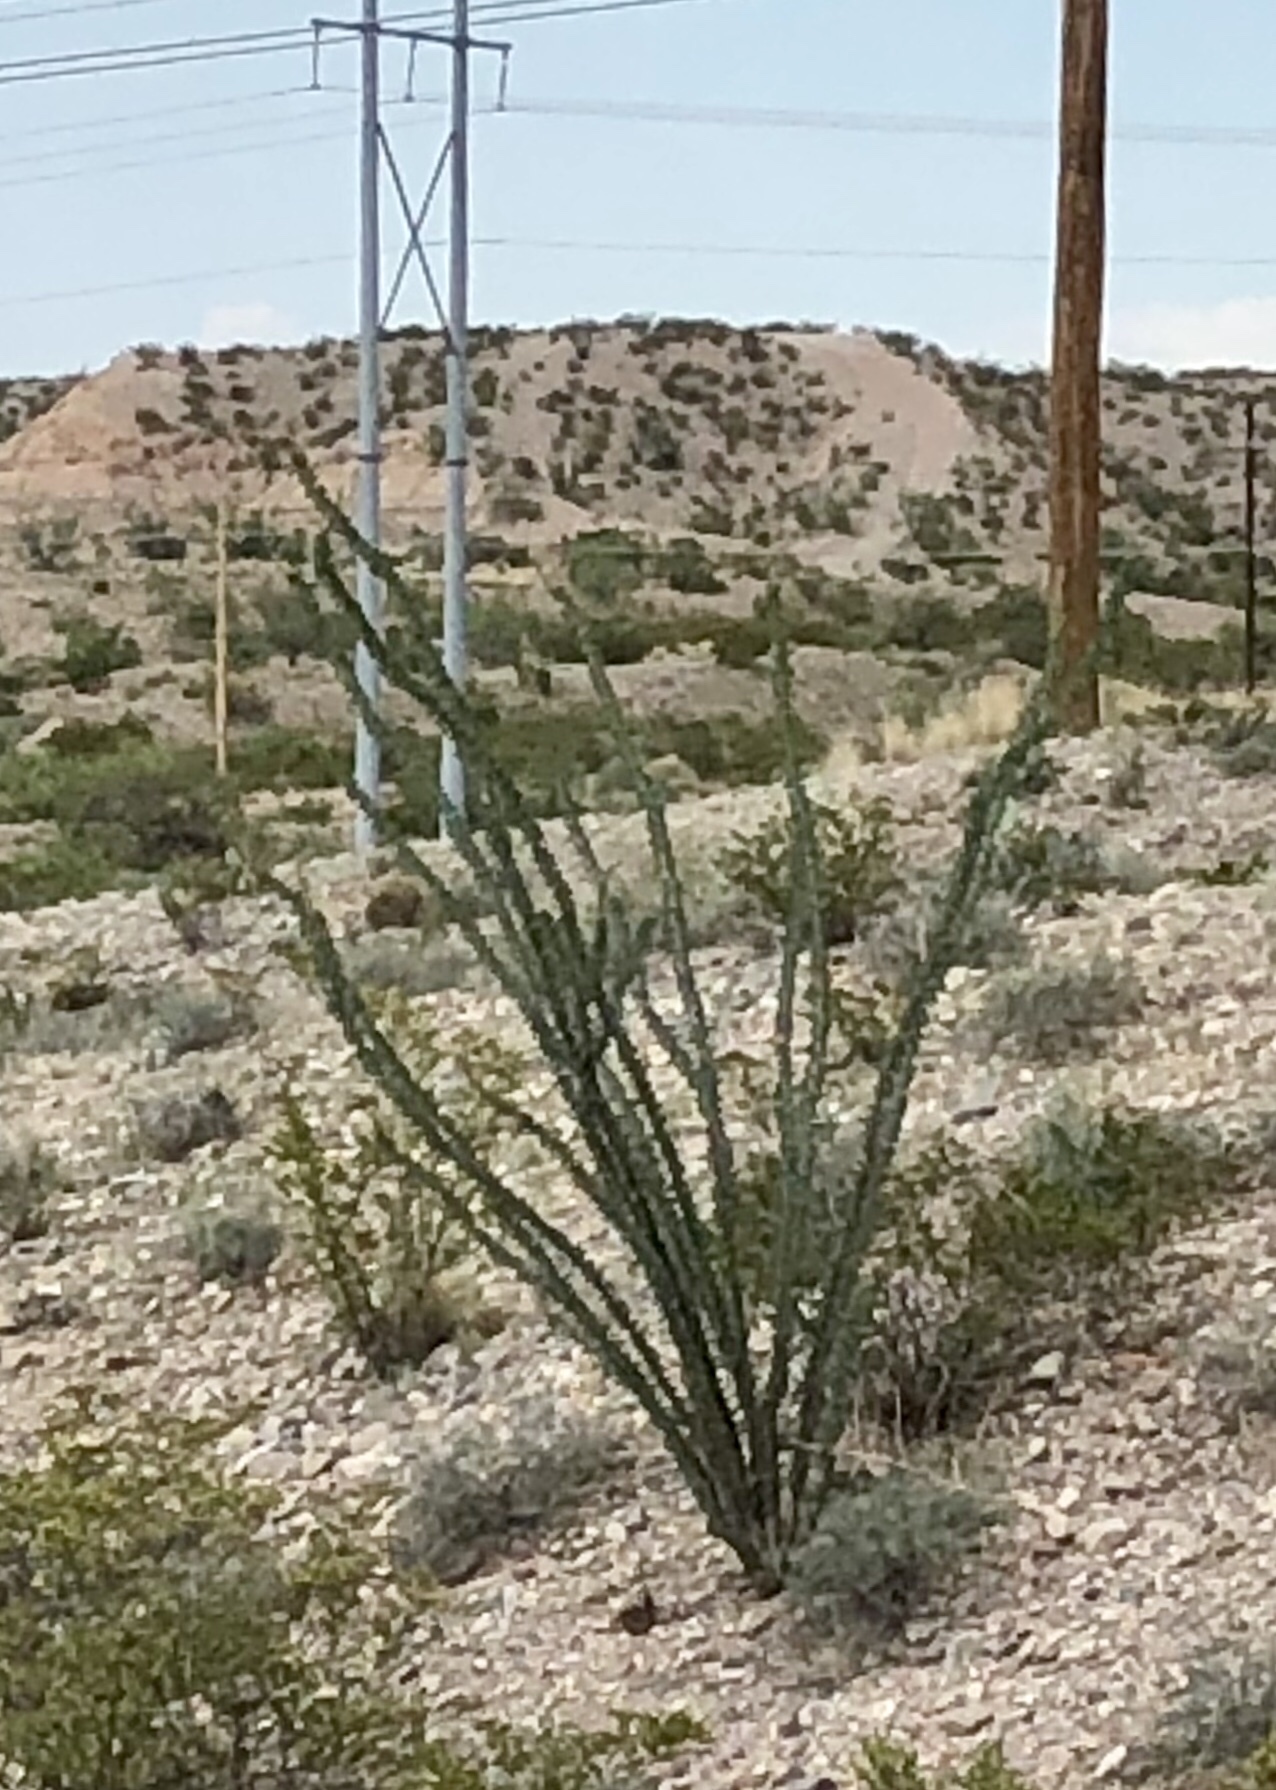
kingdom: Plantae
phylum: Tracheophyta
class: Magnoliopsida
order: Ericales
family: Fouquieriaceae
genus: Fouquieria
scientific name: Fouquieria splendens
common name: Vine-cactus
